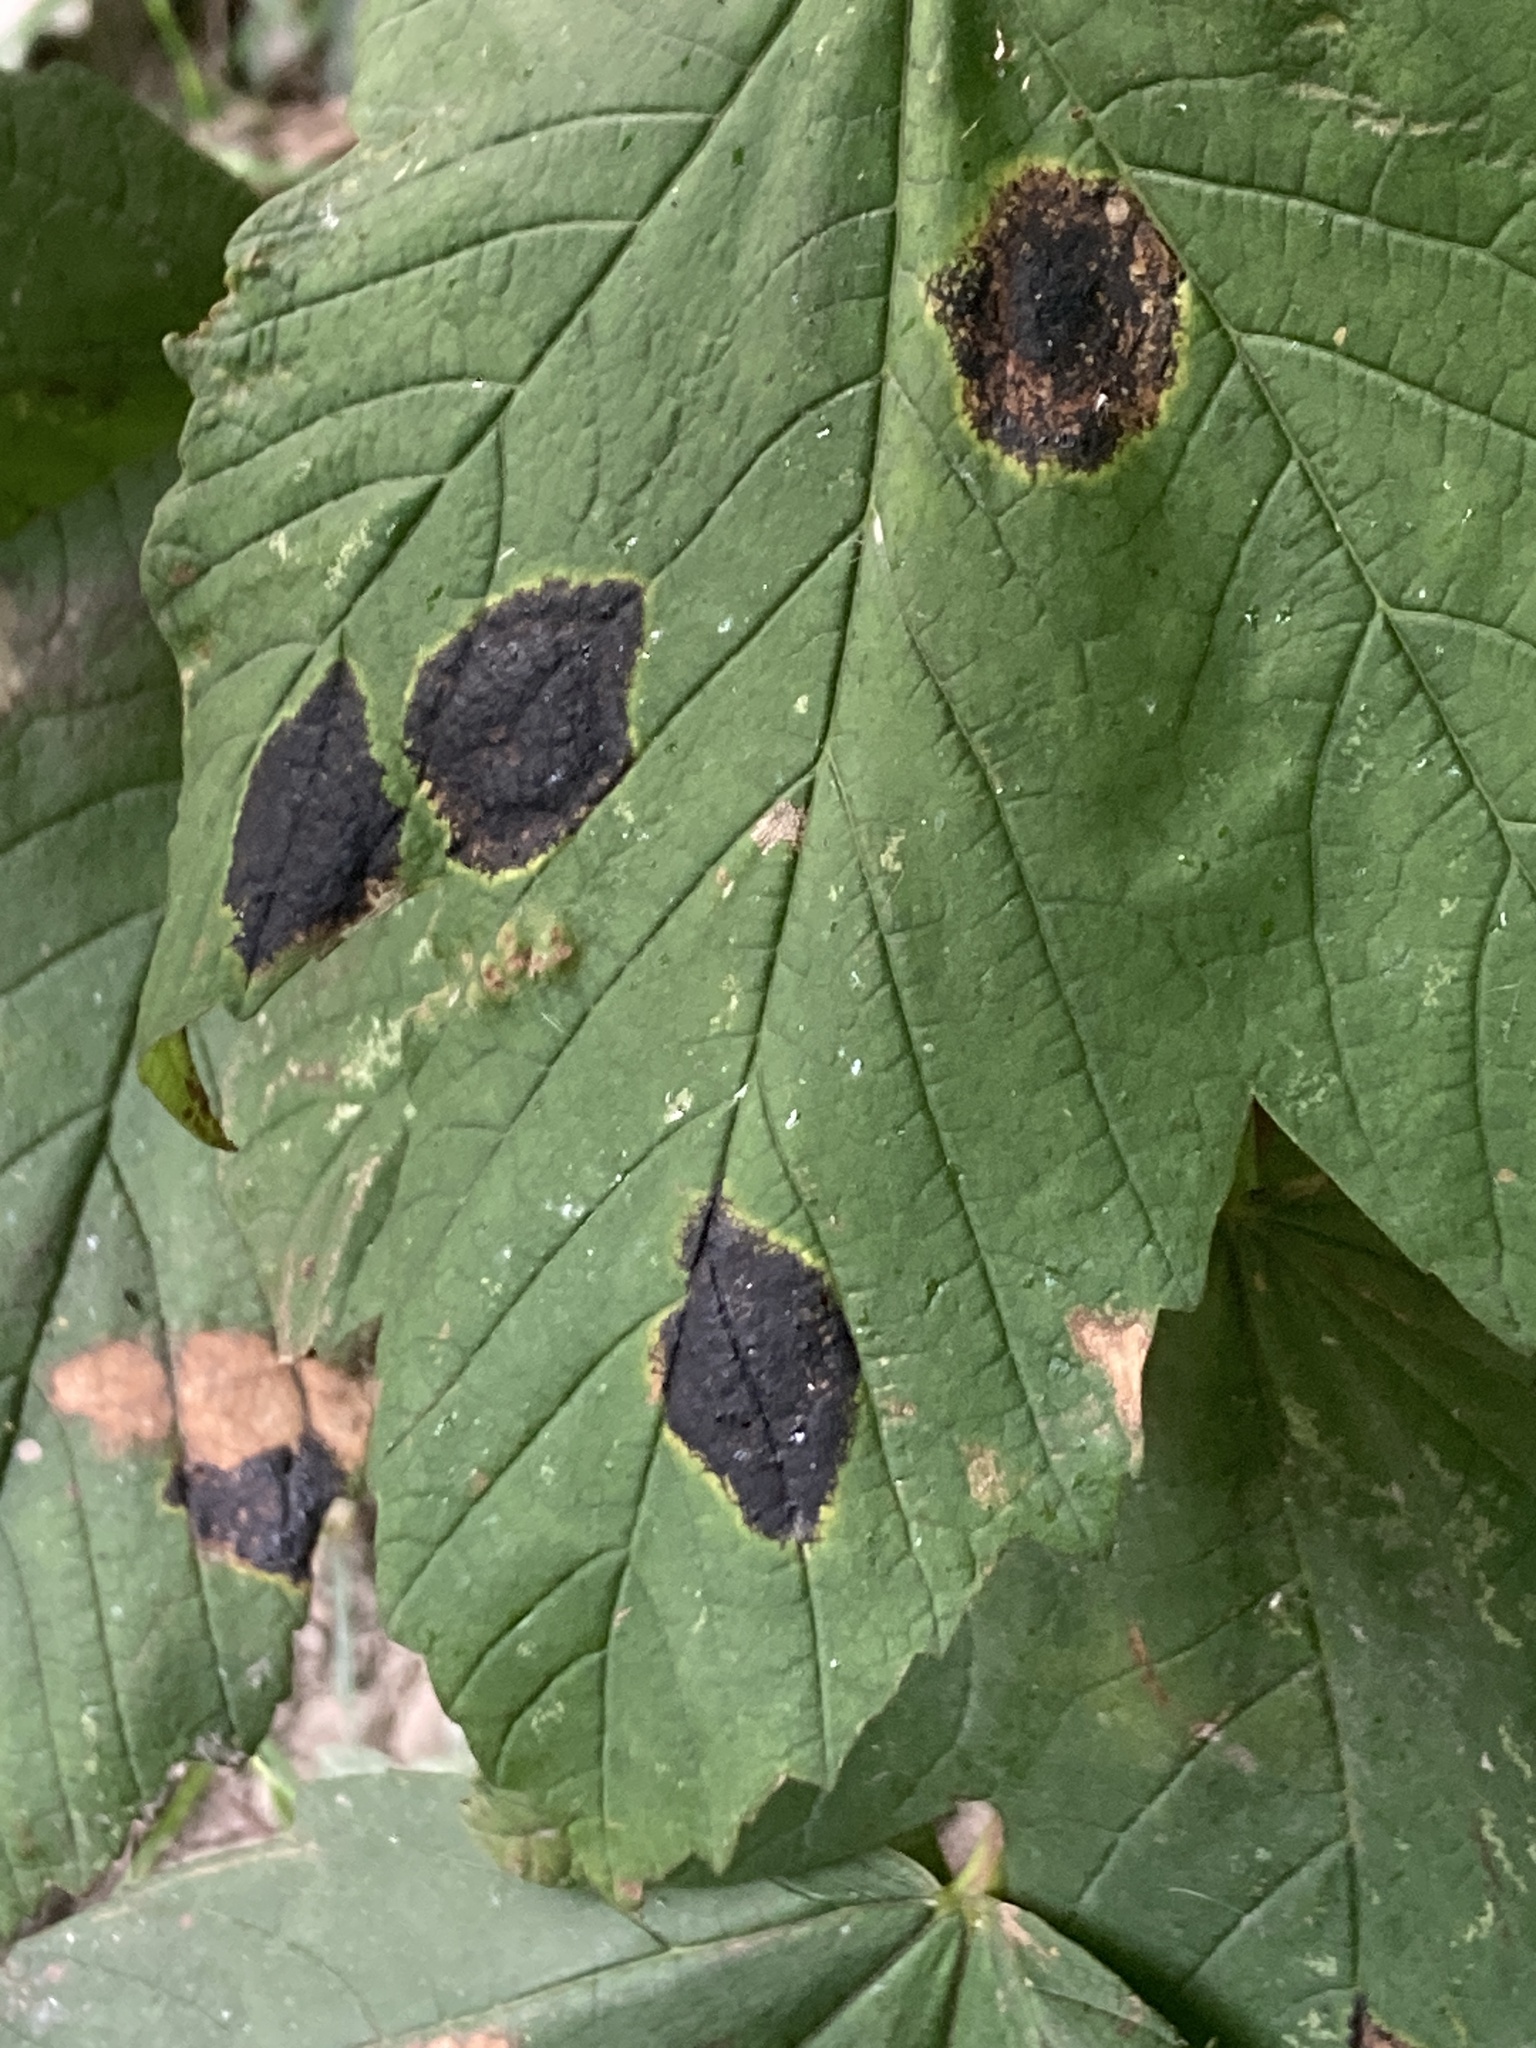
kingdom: Fungi
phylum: Ascomycota
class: Leotiomycetes
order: Rhytismatales
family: Rhytismataceae
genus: Rhytisma
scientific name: Rhytisma acerinum
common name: European tar spot
